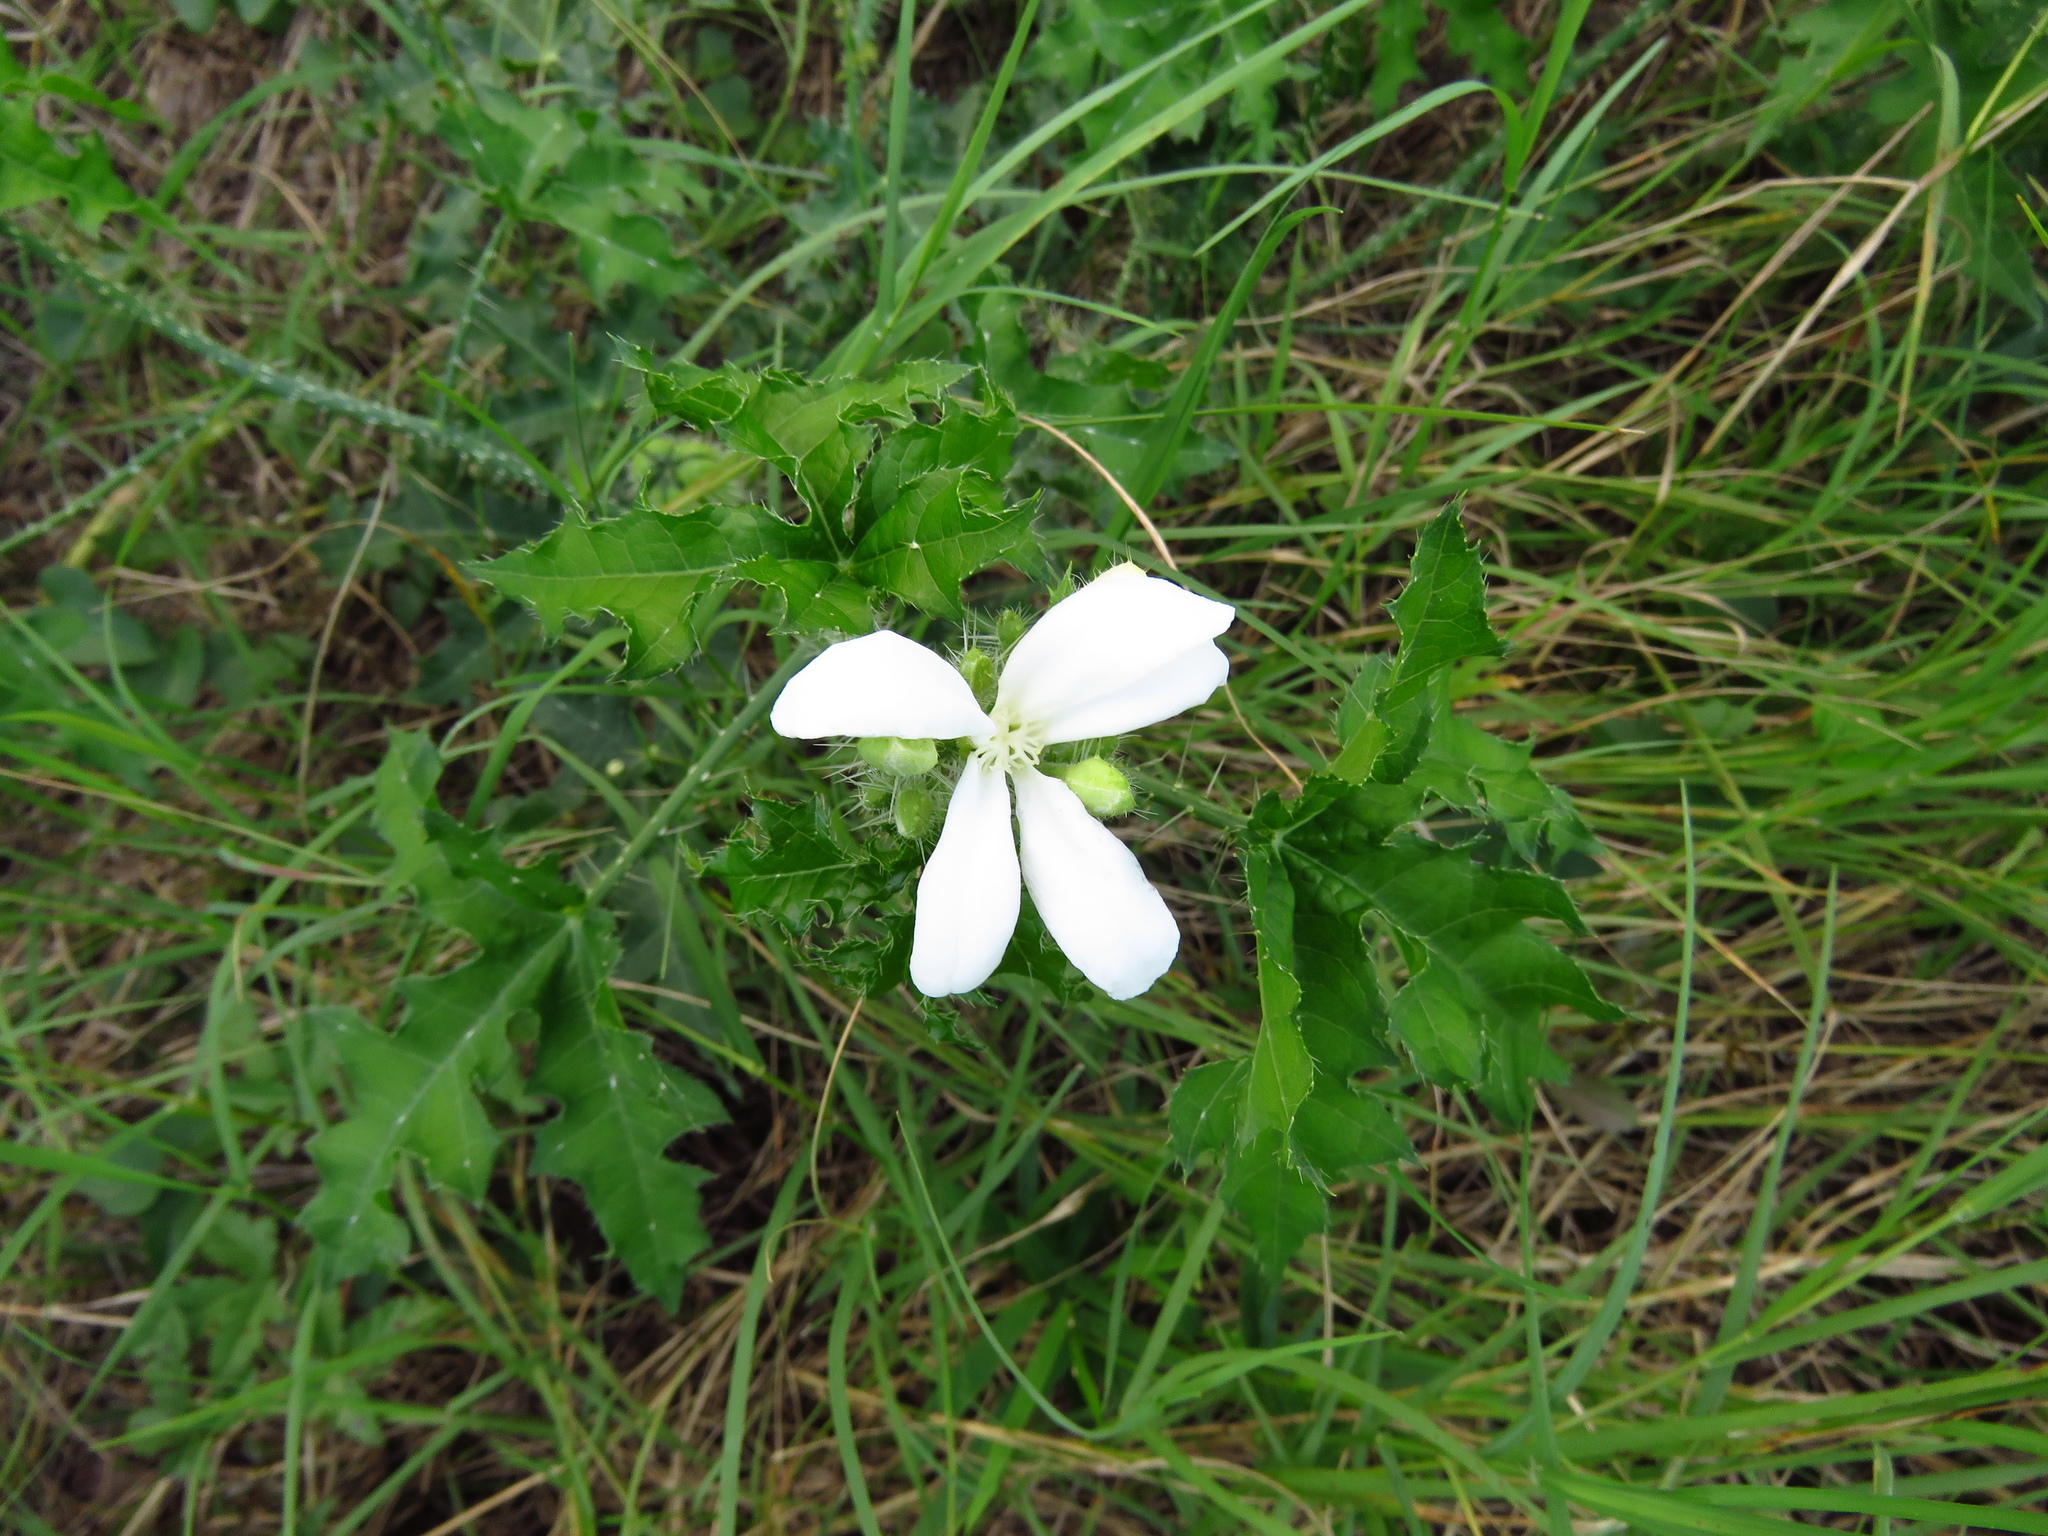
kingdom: Plantae
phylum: Tracheophyta
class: Magnoliopsida
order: Malpighiales
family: Euphorbiaceae
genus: Cnidoscolus
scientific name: Cnidoscolus texanus
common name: Texas bull-nettle
